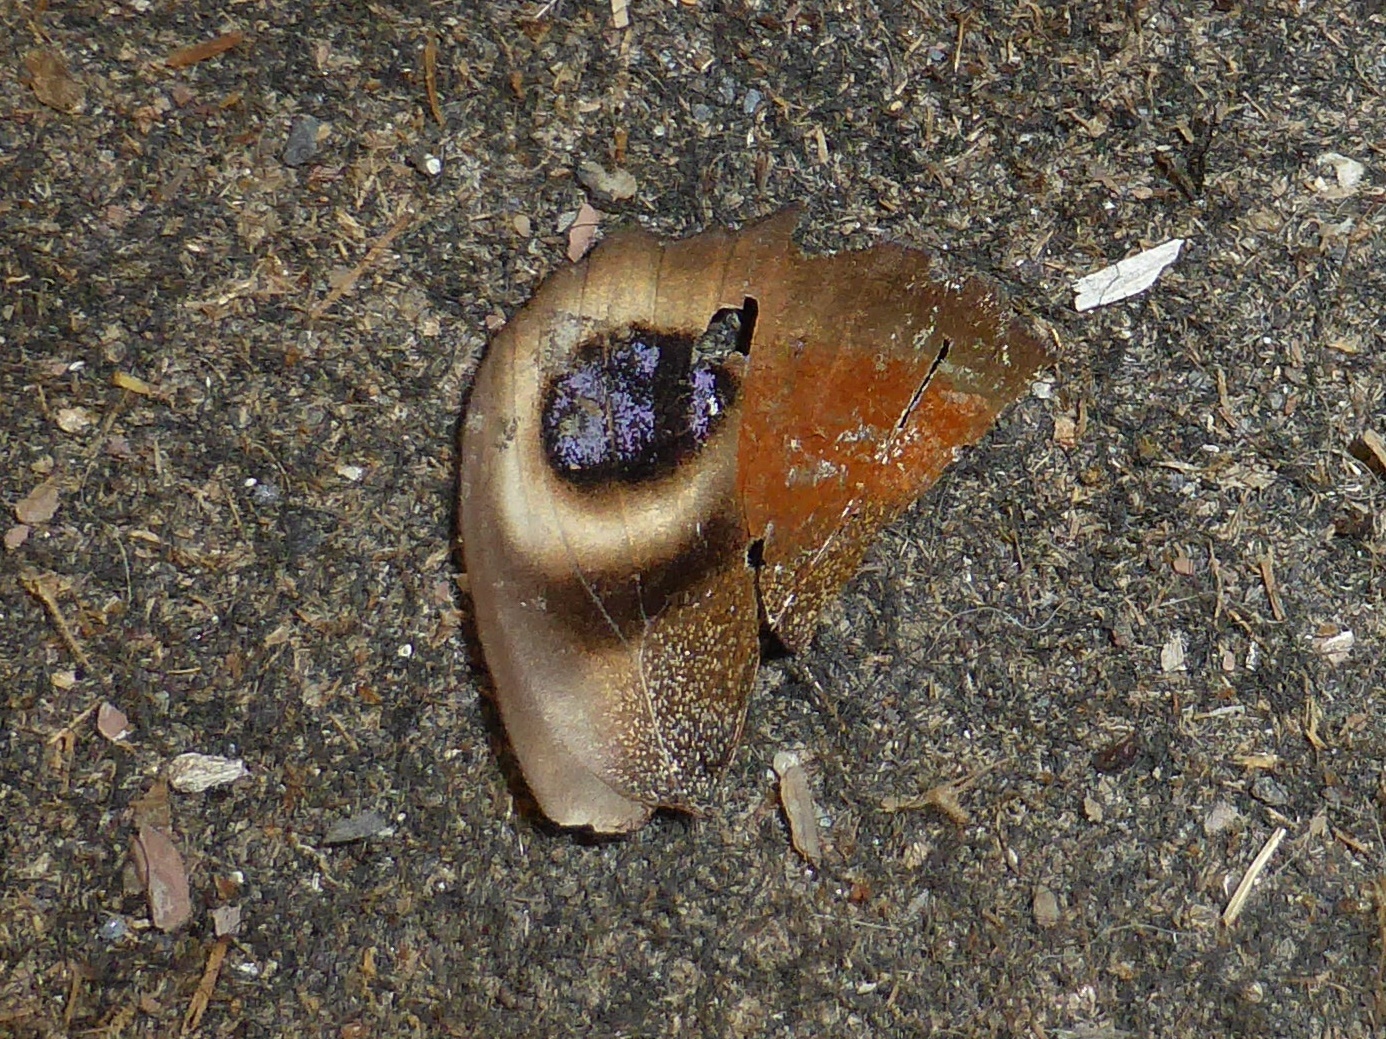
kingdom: Animalia
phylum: Arthropoda
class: Insecta
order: Lepidoptera
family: Nymphalidae
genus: Aglais
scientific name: Aglais io
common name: Peacock
